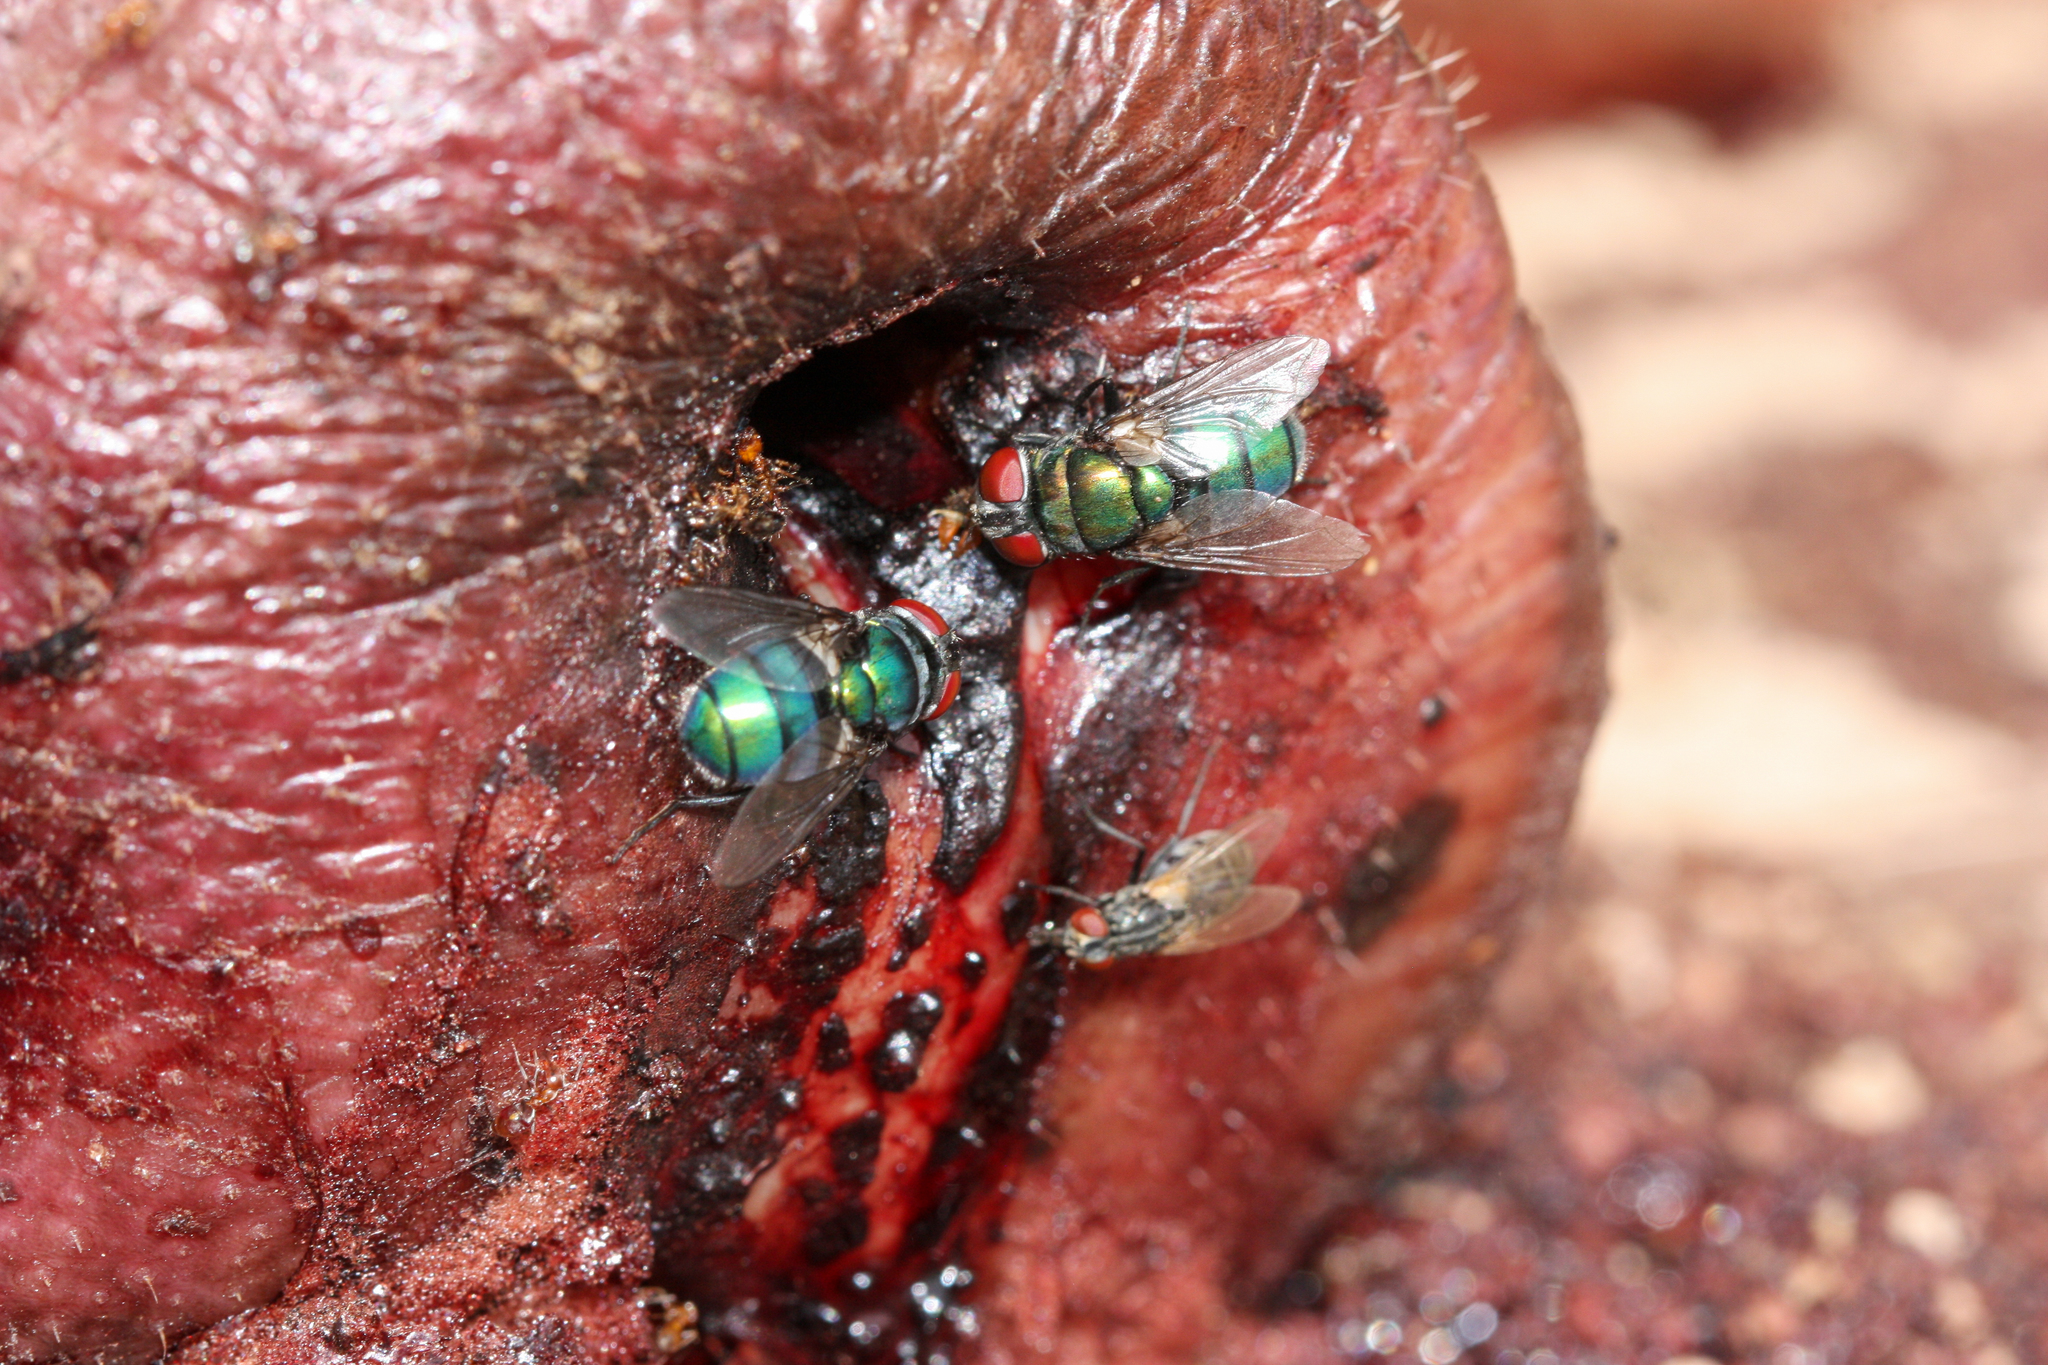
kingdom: Animalia
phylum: Arthropoda
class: Insecta
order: Diptera
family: Calliphoridae
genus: Chrysomya
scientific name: Chrysomya rufifacies
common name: Blow fly
